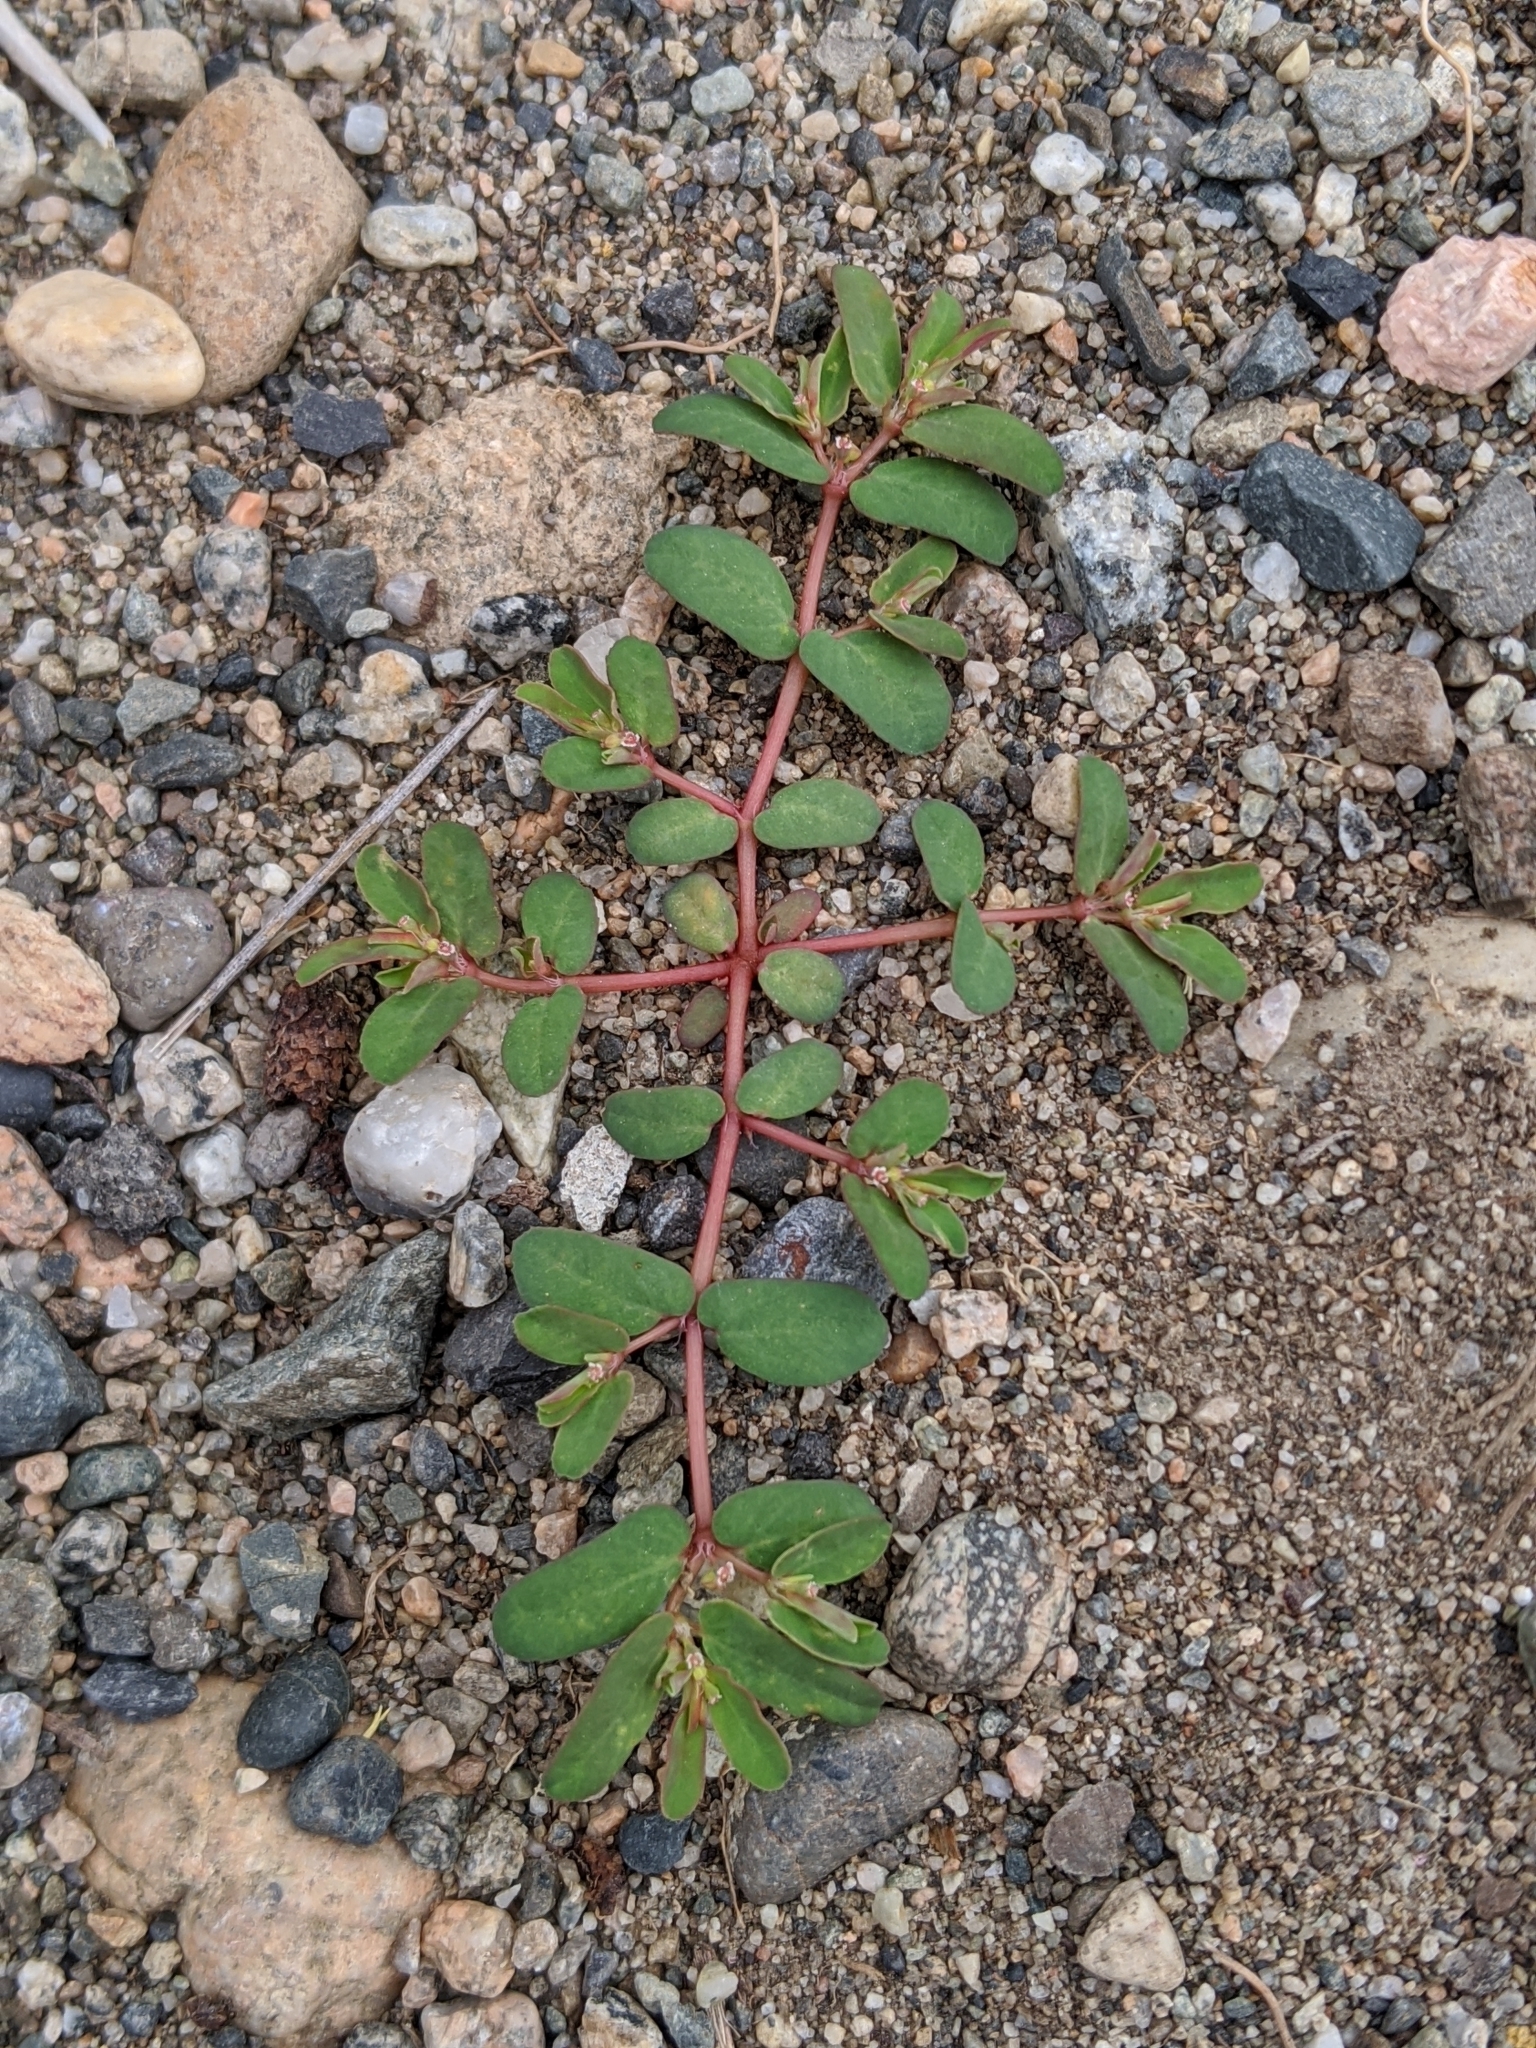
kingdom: Plantae
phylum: Tracheophyta
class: Magnoliopsida
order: Malpighiales
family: Euphorbiaceae
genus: Euphorbia
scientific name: Euphorbia glyptosperma
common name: Corrugate-seeded spurge
